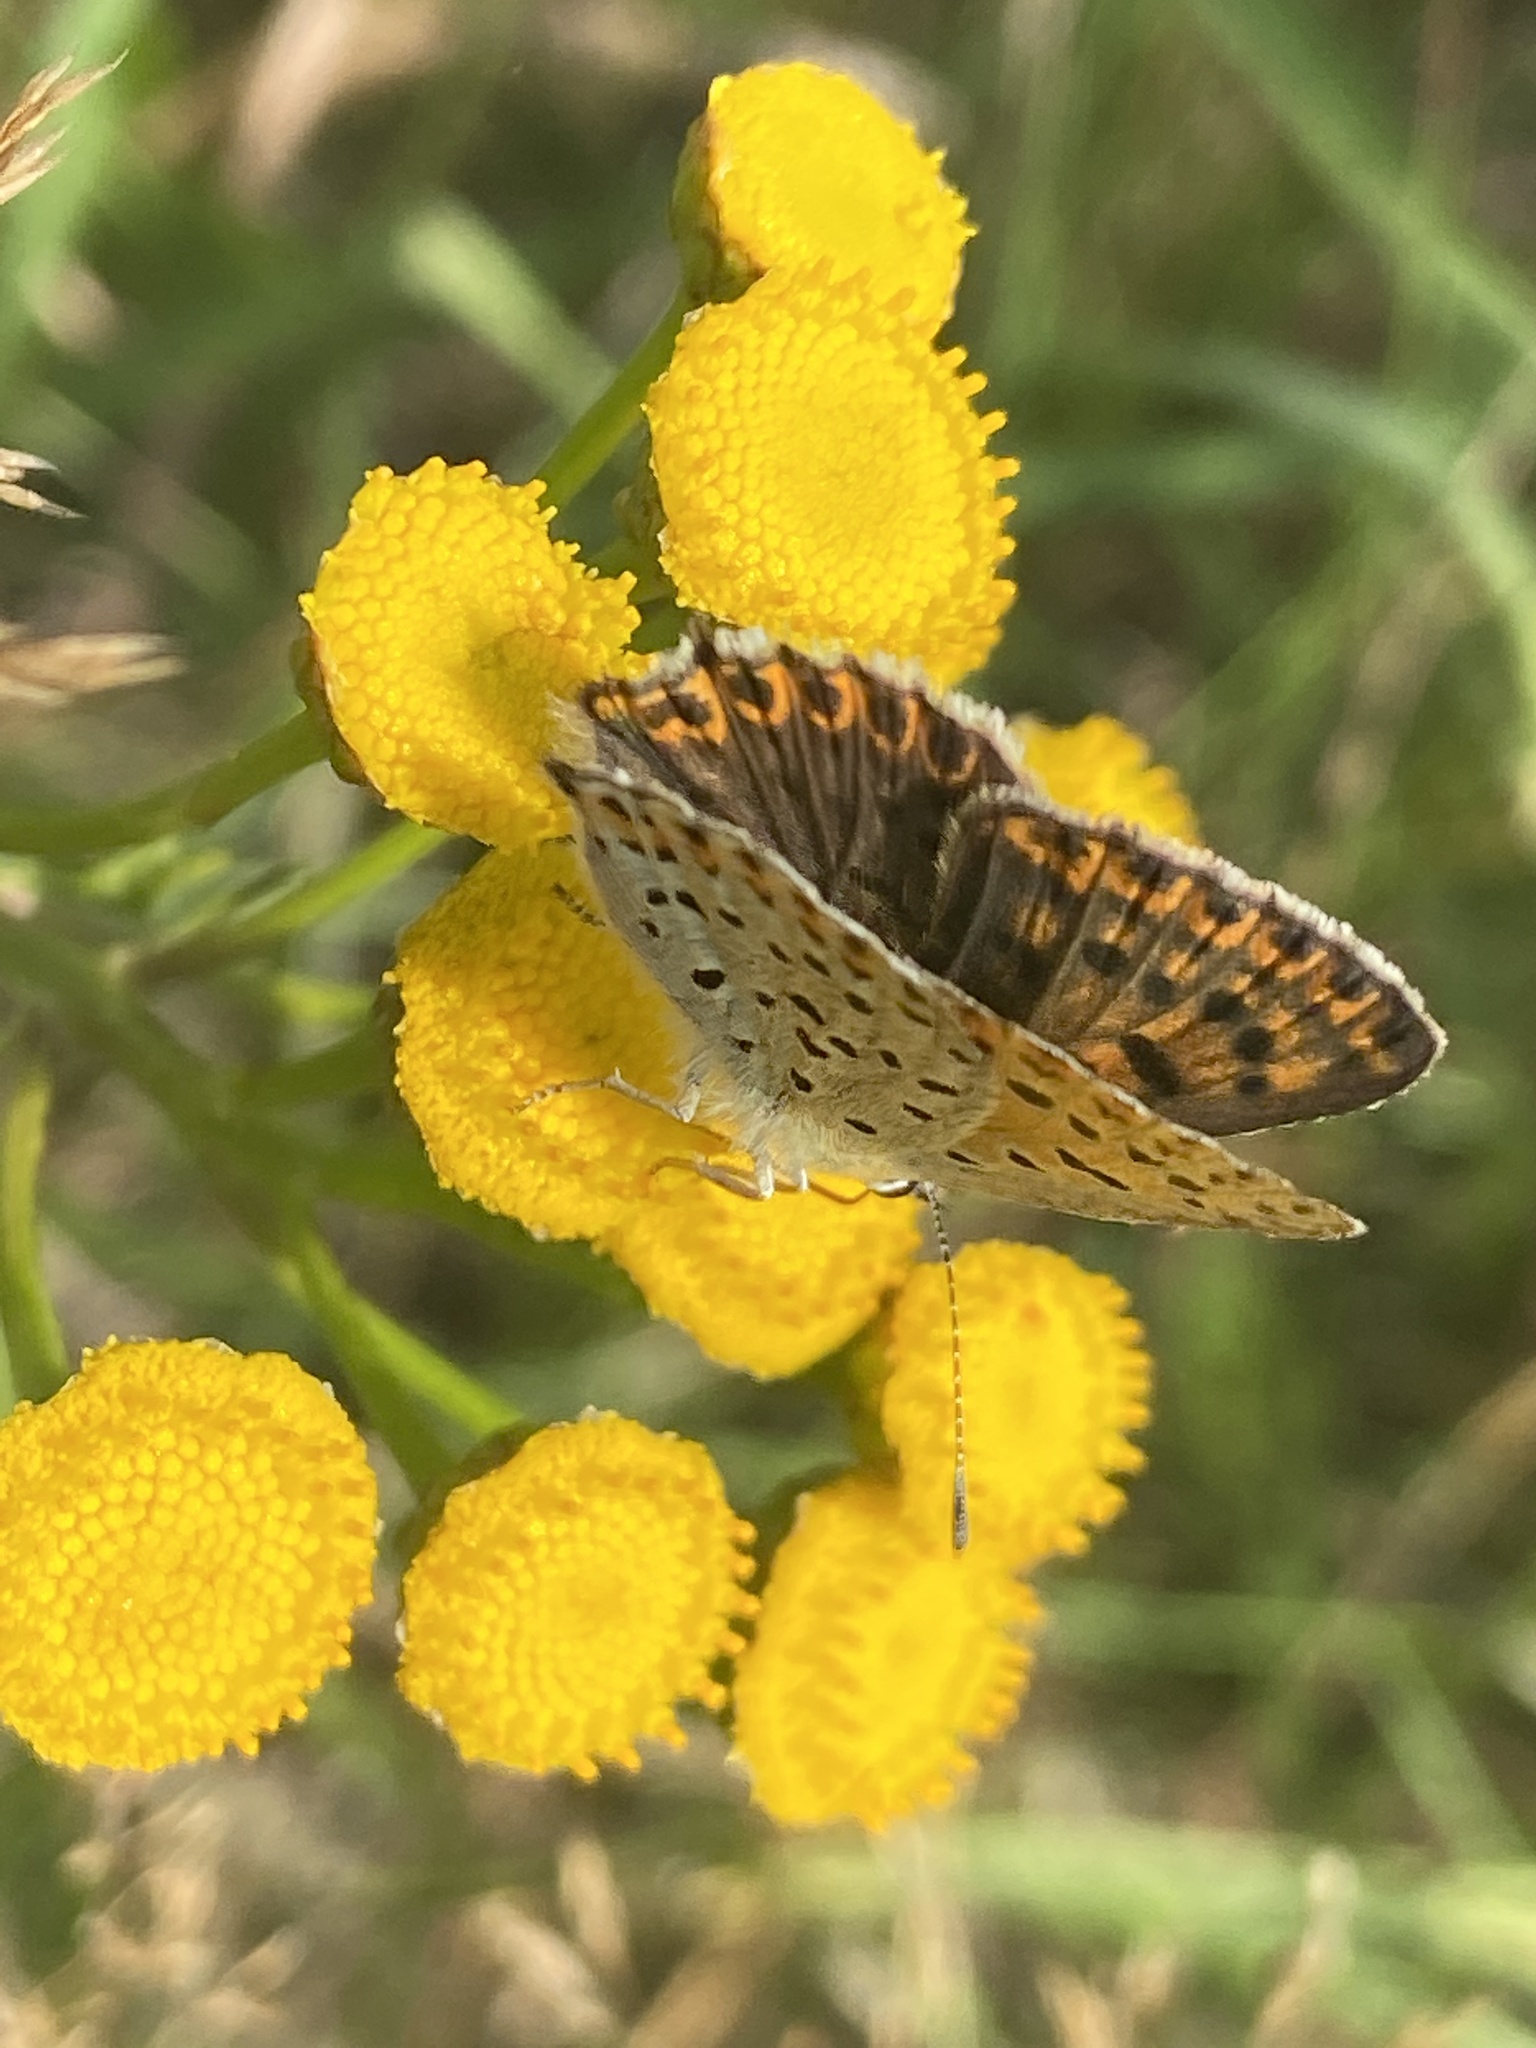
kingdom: Animalia
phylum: Arthropoda
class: Insecta
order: Lepidoptera
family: Lycaenidae
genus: Loweia
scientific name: Loweia tityrus
